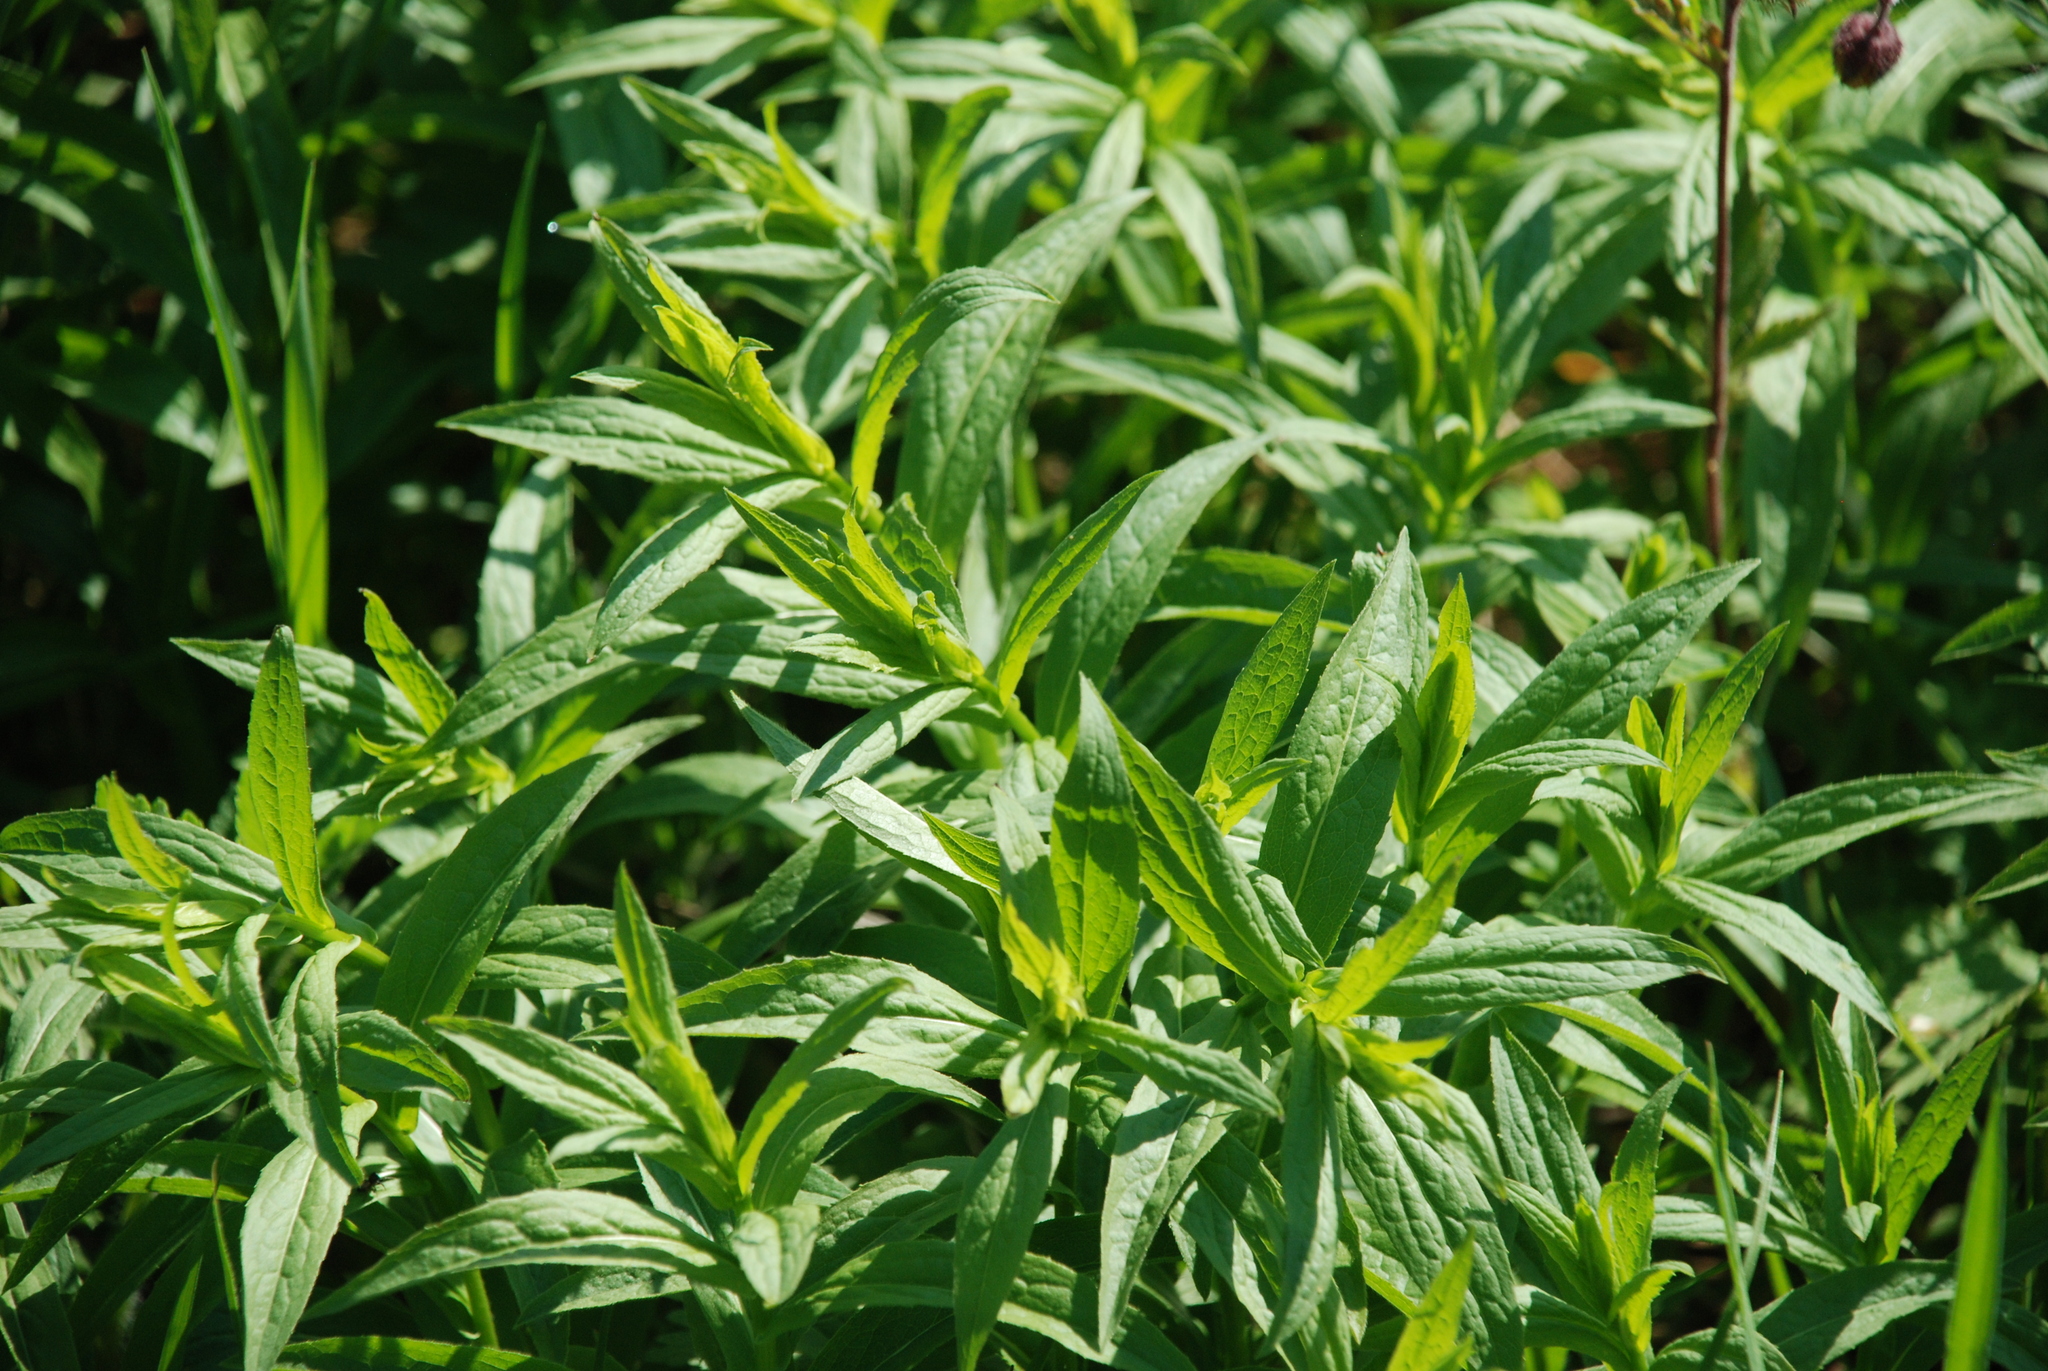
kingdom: Plantae
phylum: Tracheophyta
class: Magnoliopsida
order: Asterales
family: Asteraceae
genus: Pentanema
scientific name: Pentanema salicinum
